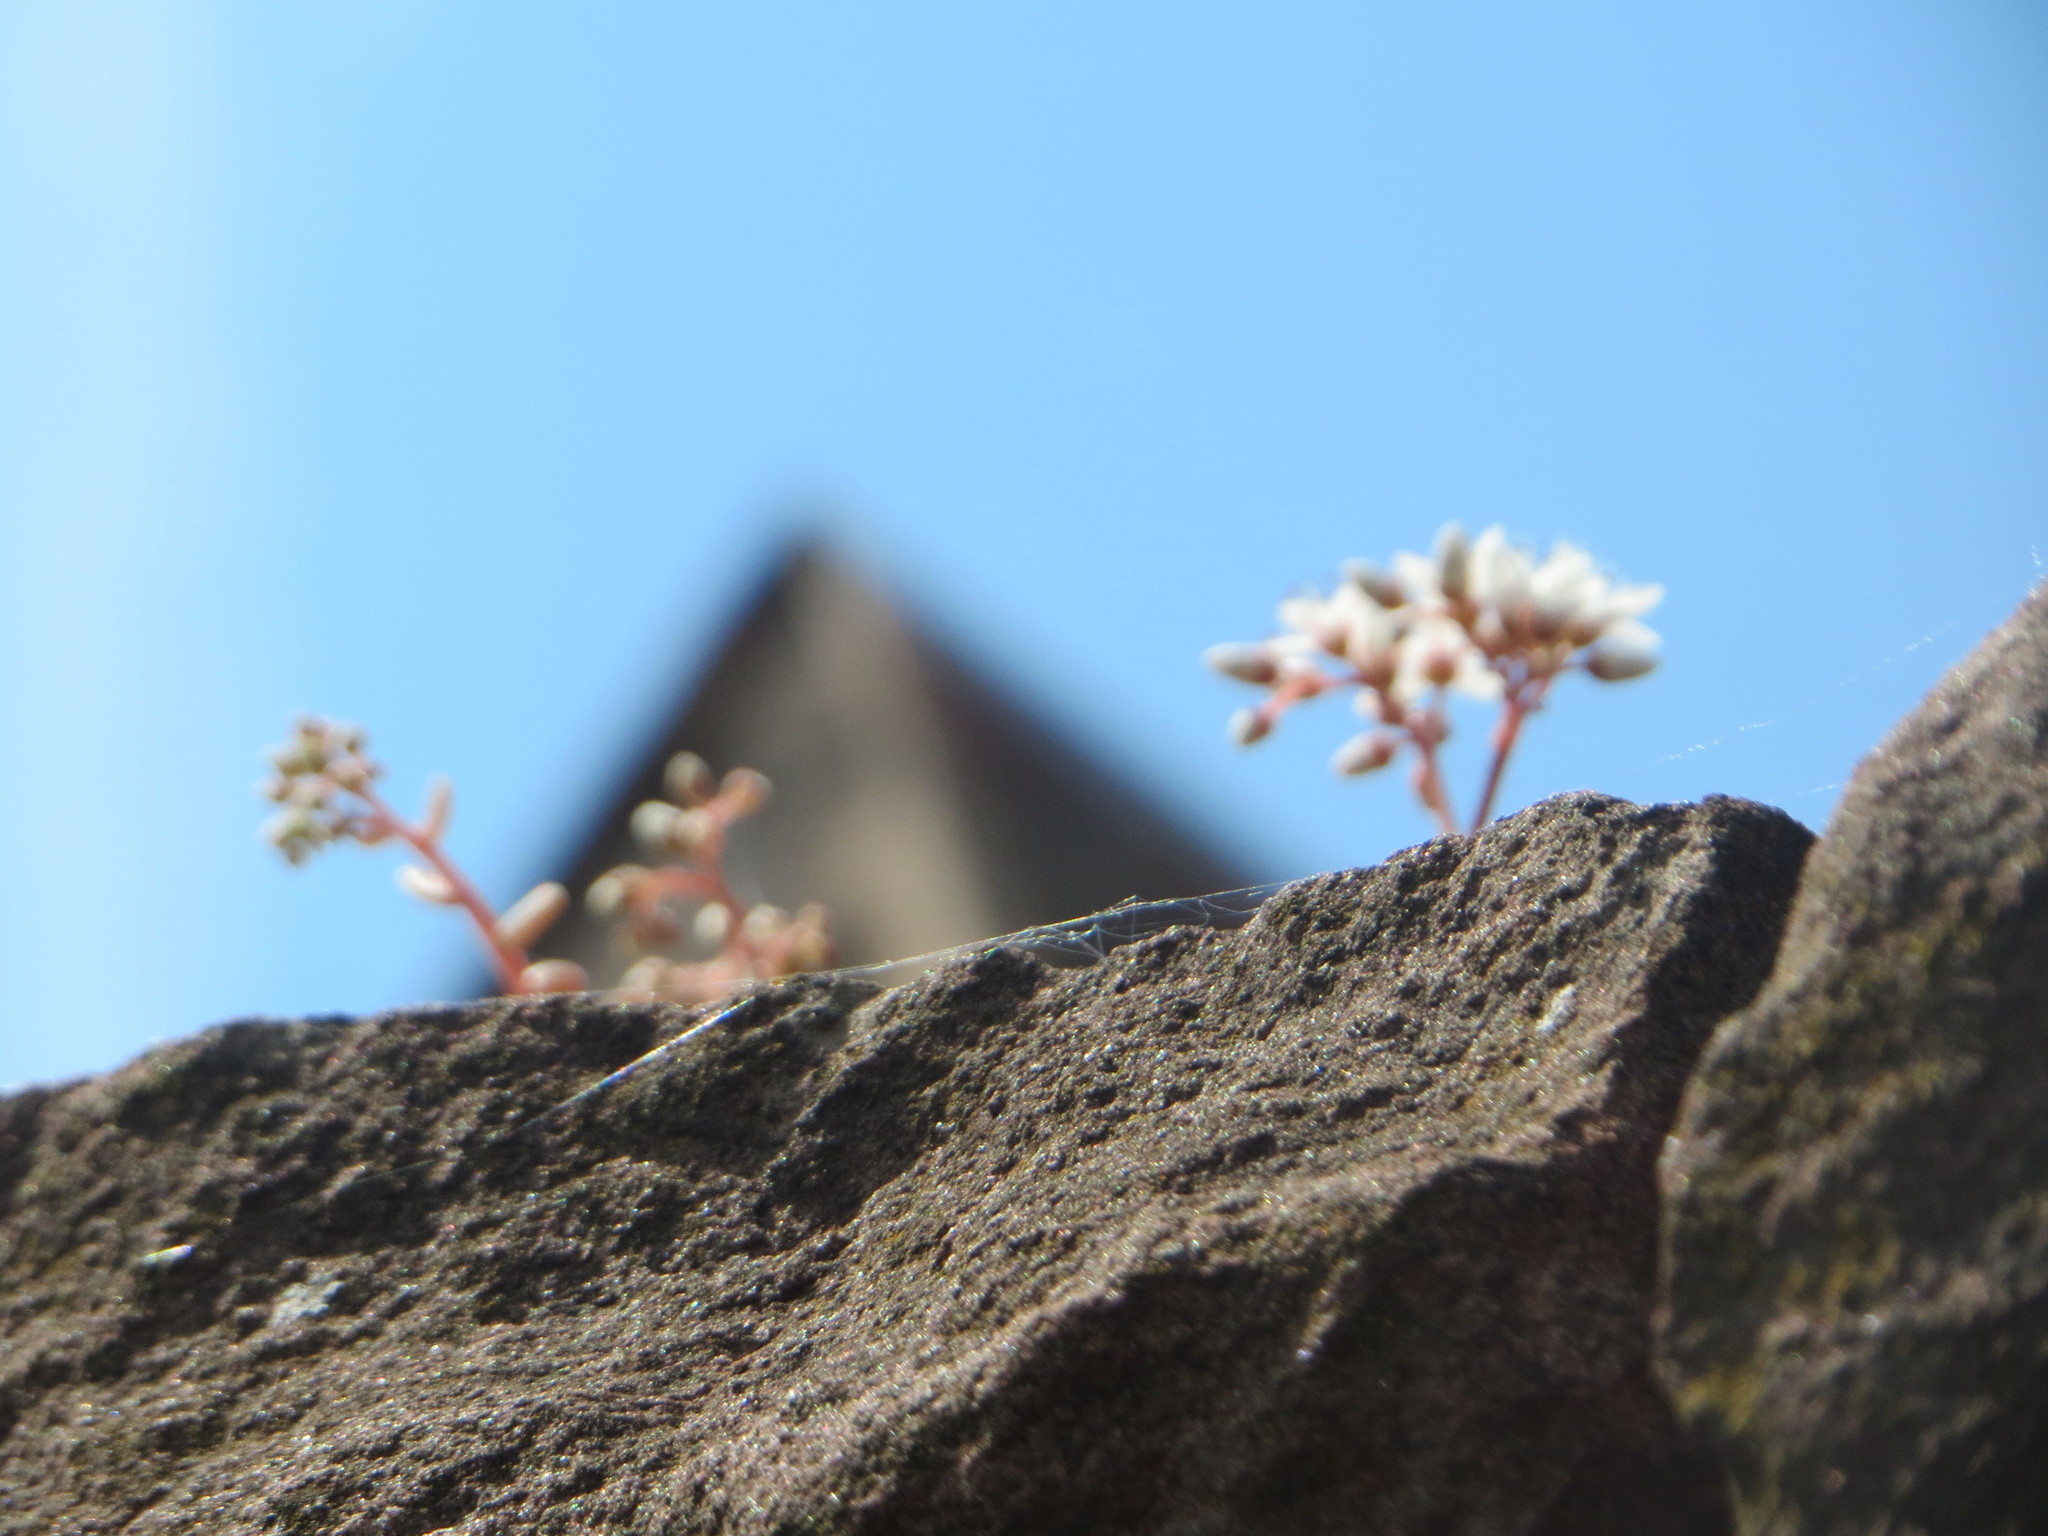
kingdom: Plantae
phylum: Tracheophyta
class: Magnoliopsida
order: Saxifragales
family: Crassulaceae
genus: Sedum
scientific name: Sedum album
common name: White stonecrop
